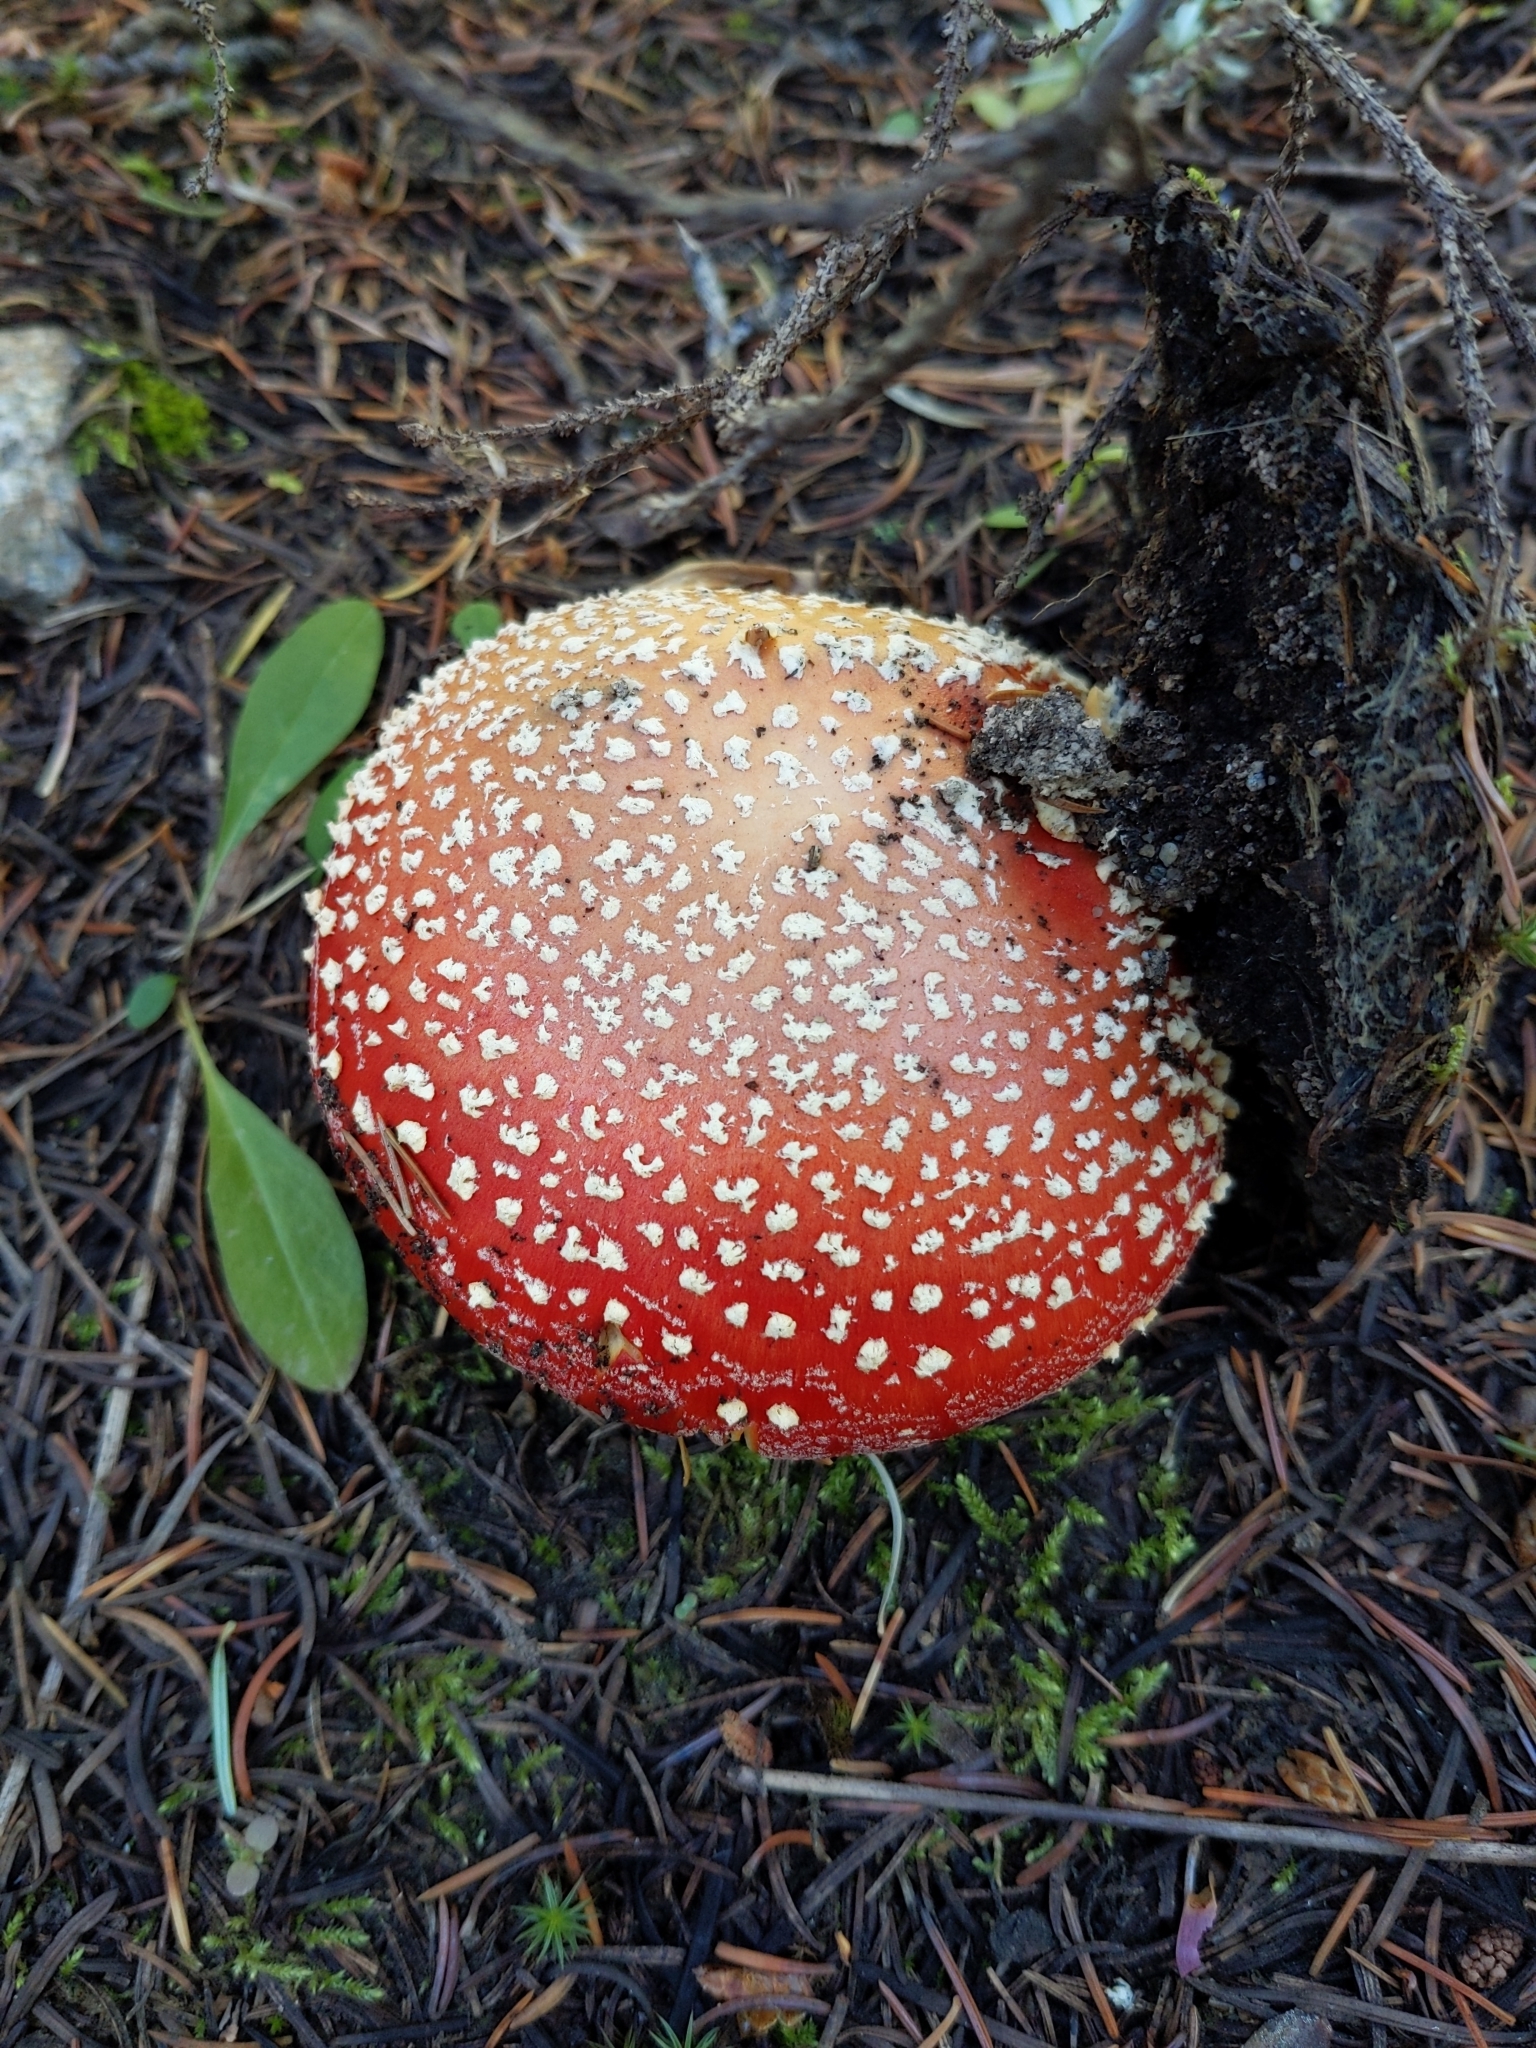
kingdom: Fungi
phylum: Basidiomycota
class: Agaricomycetes
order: Agaricales
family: Amanitaceae
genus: Amanita
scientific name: Amanita muscaria
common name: Fly agaric
